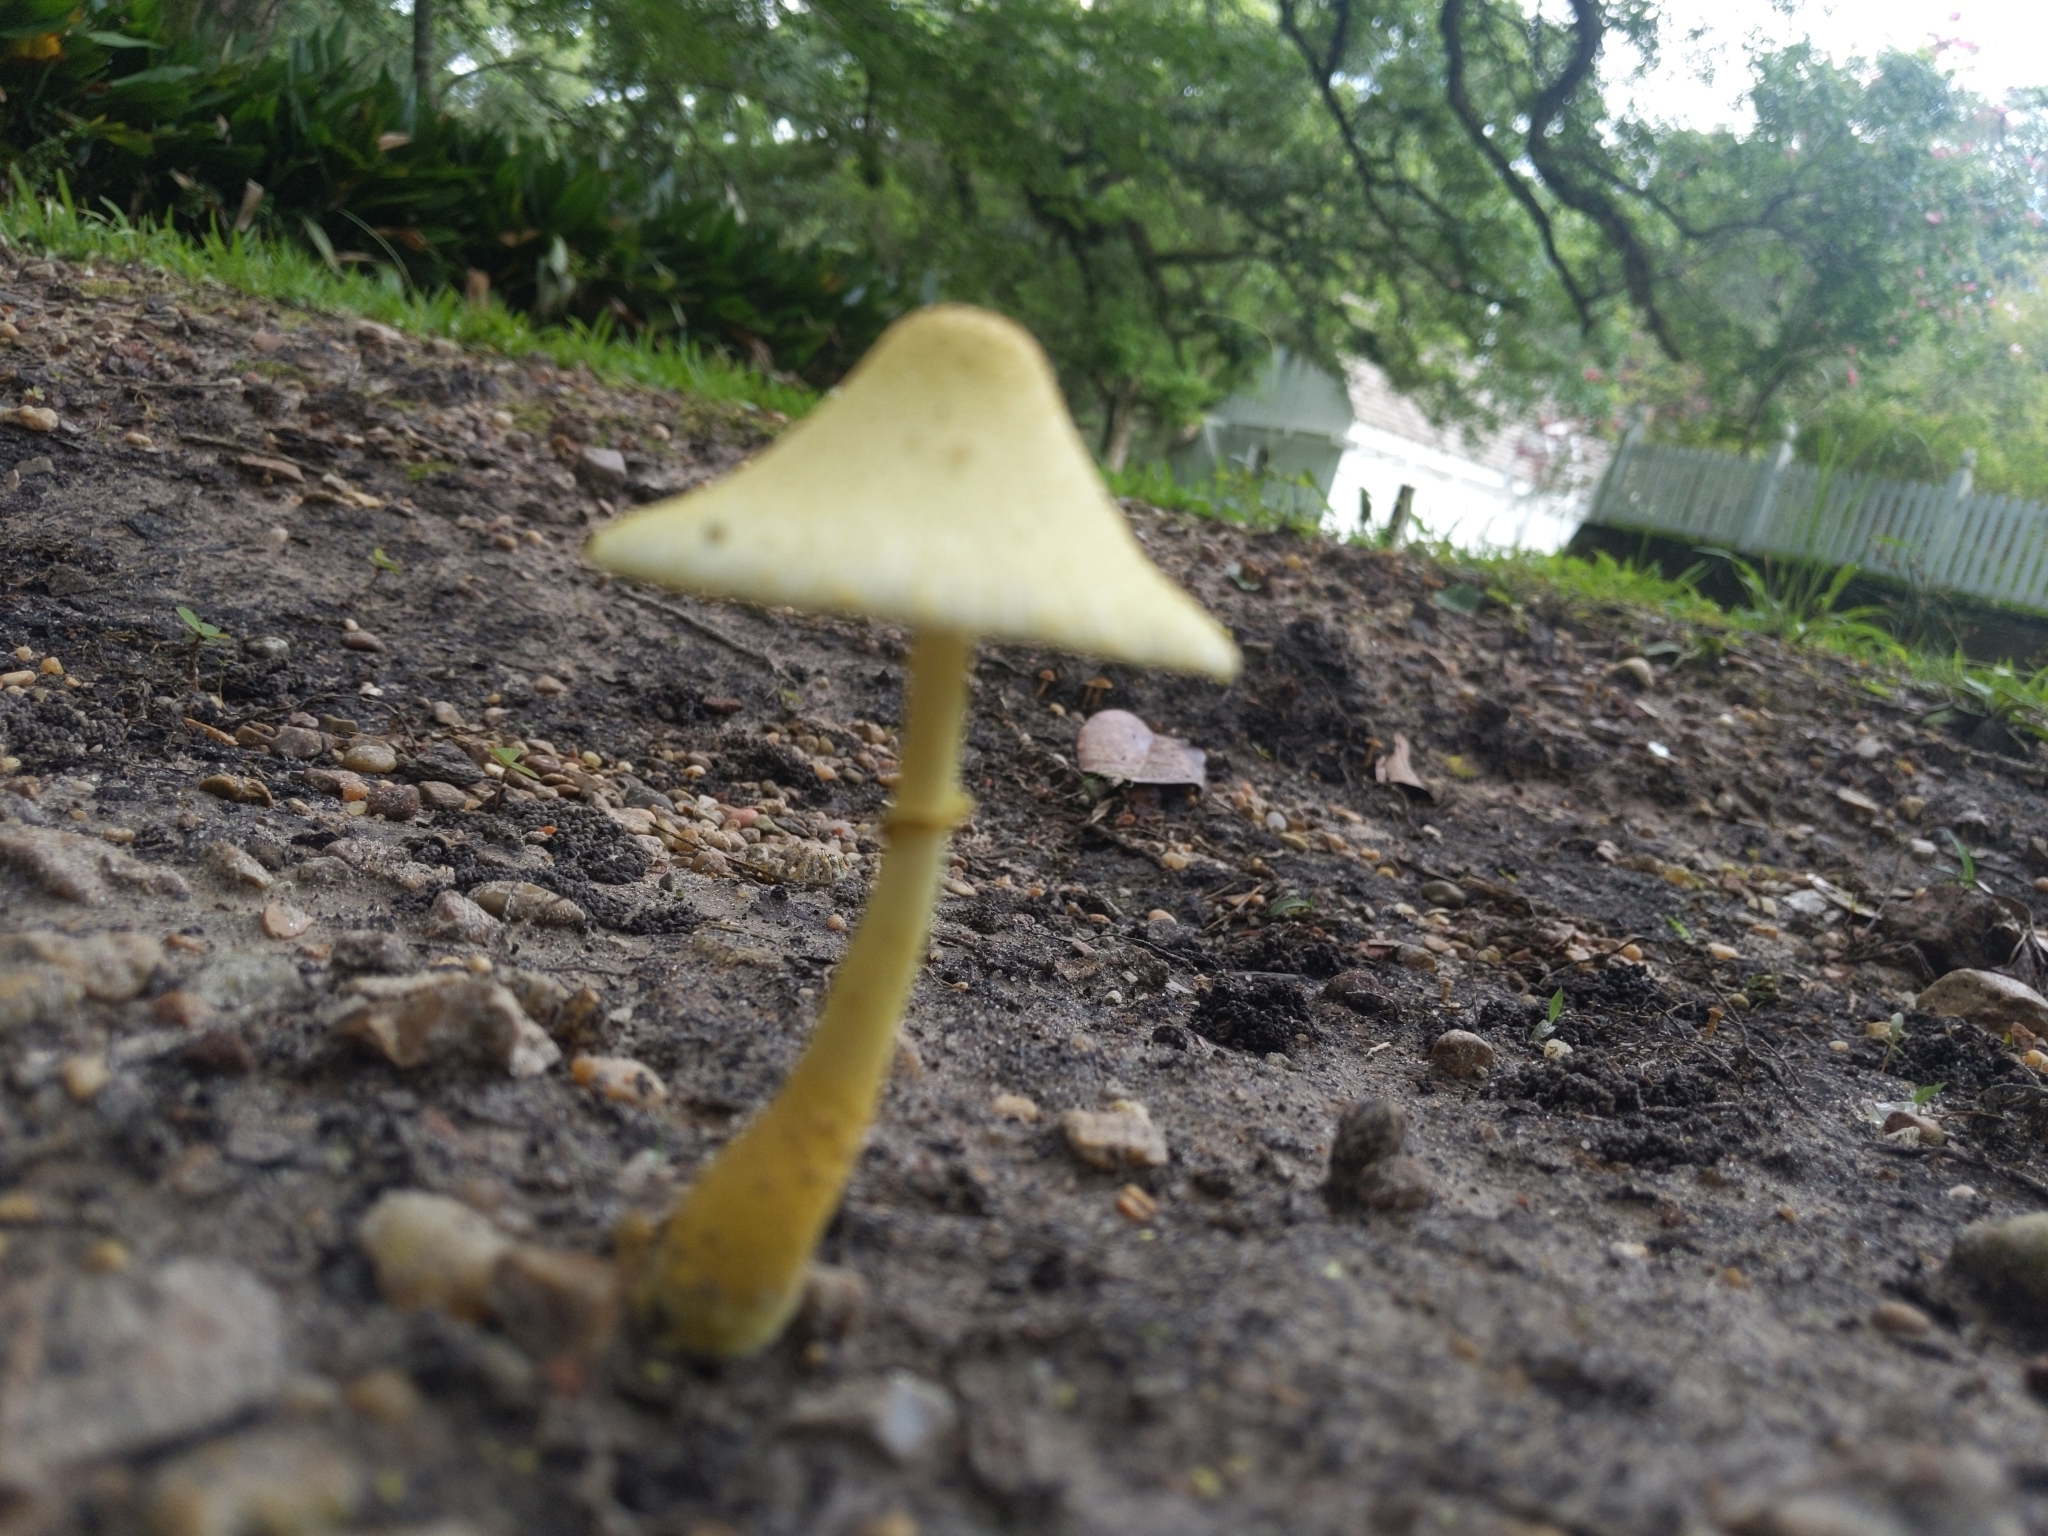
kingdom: Fungi
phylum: Basidiomycota
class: Agaricomycetes
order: Agaricales
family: Agaricaceae
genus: Leucocoprinus
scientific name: Leucocoprinus birnbaumii
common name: Plantpot dapperling
